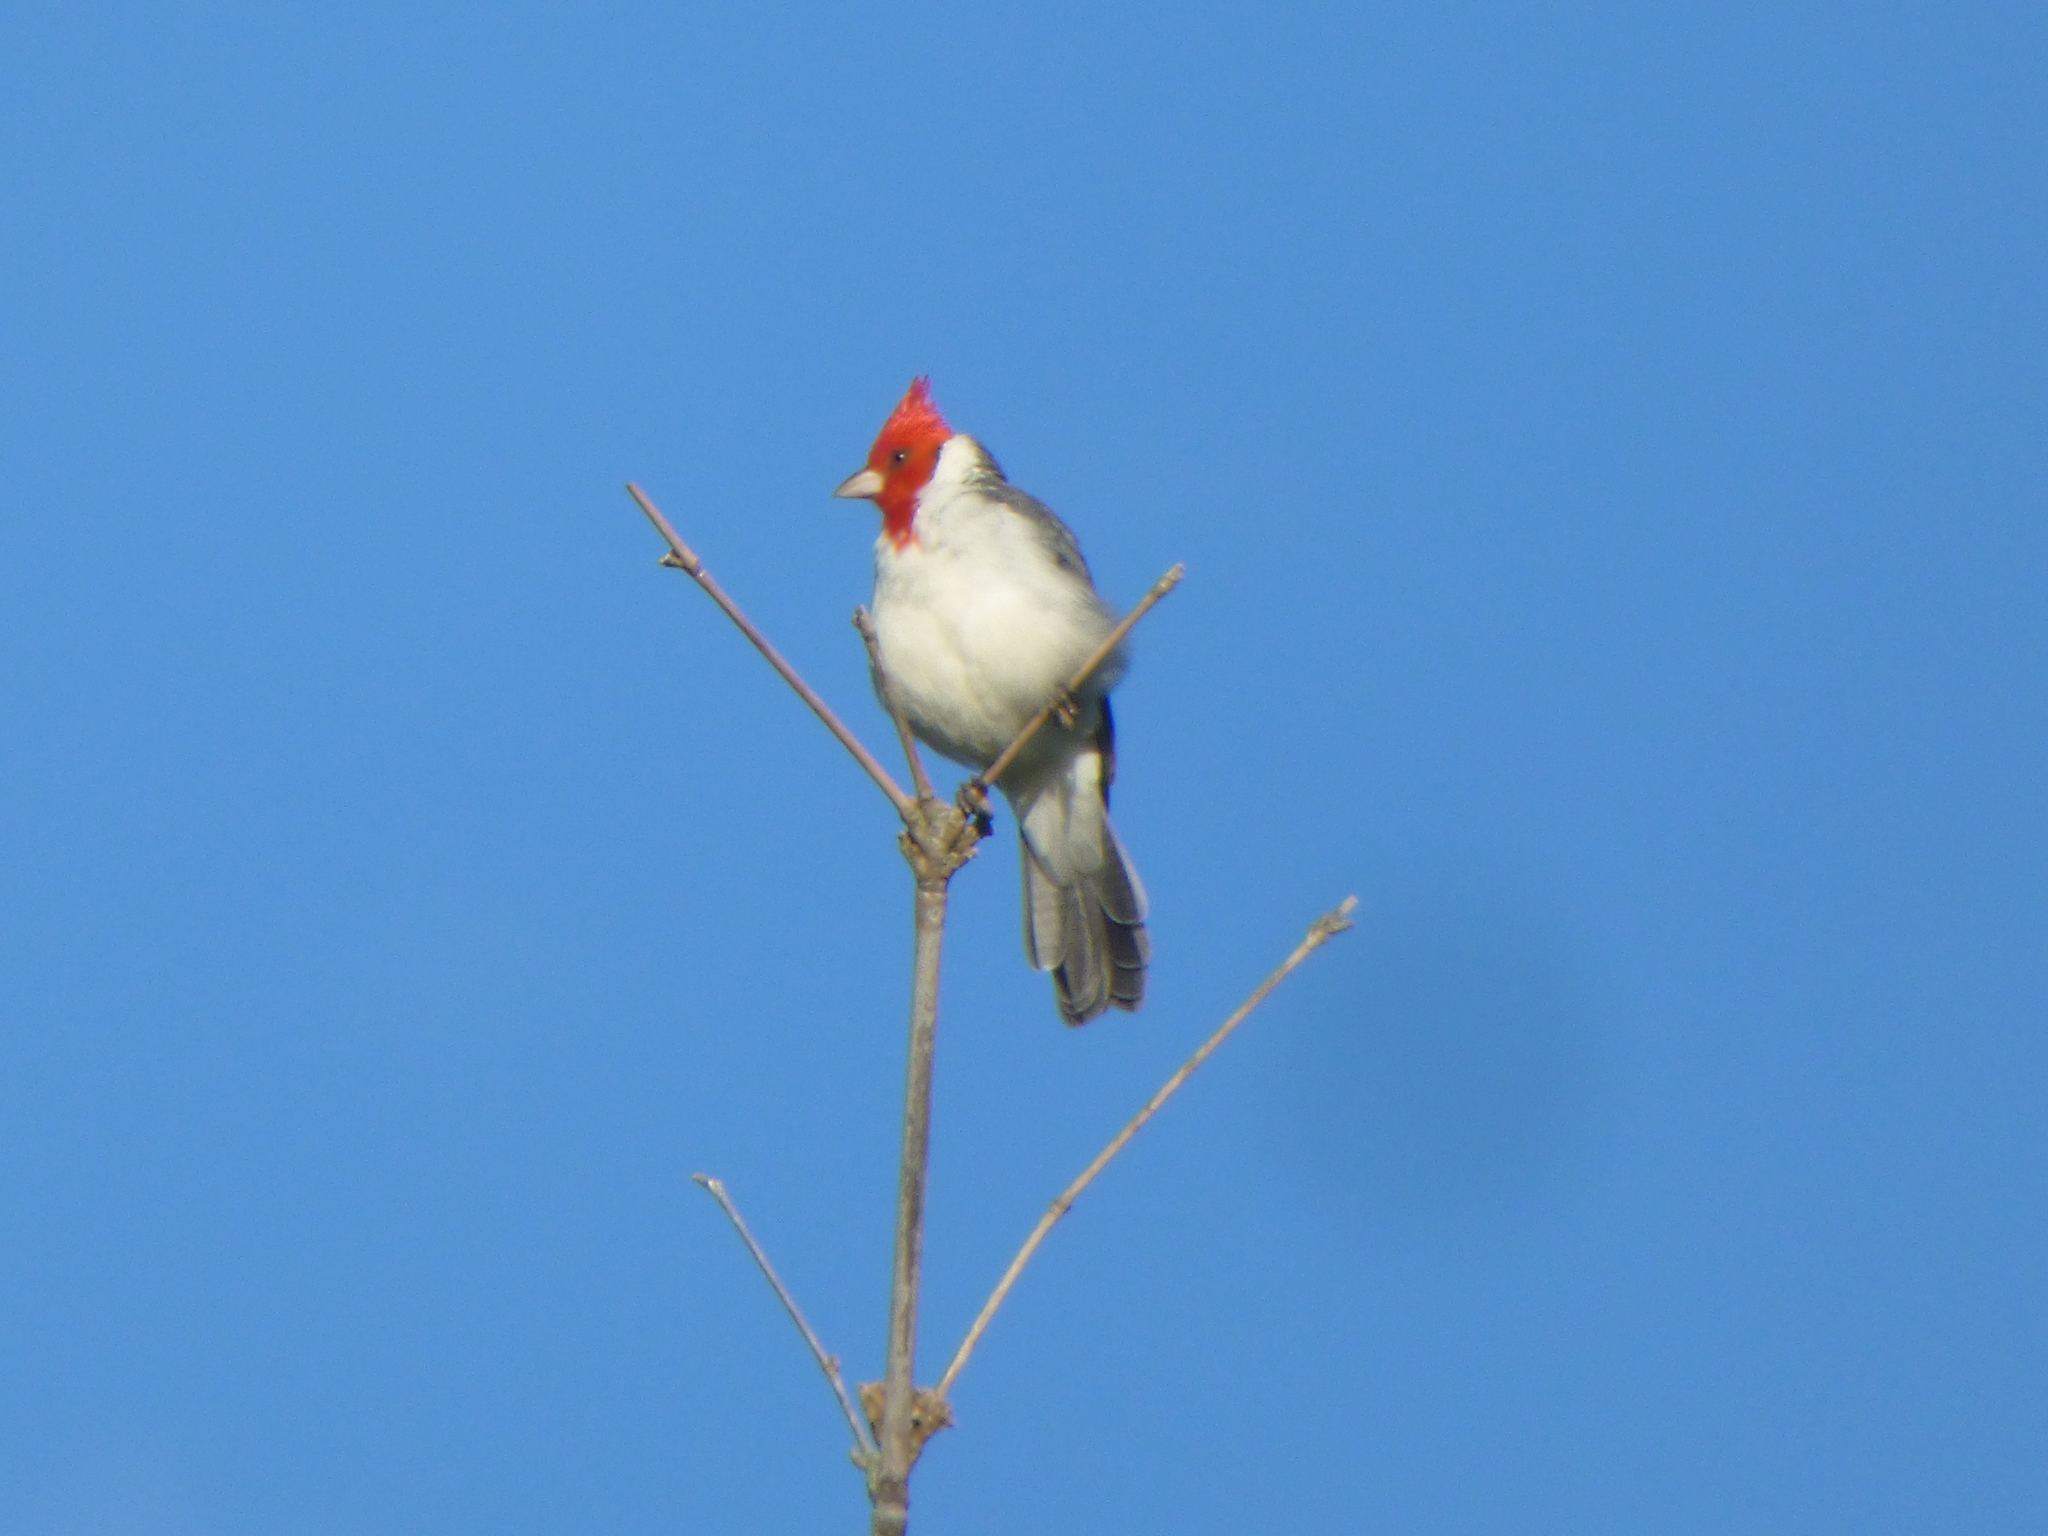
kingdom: Animalia
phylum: Chordata
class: Aves
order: Passeriformes
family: Thraupidae
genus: Paroaria
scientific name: Paroaria coronata
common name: Red-crested cardinal
